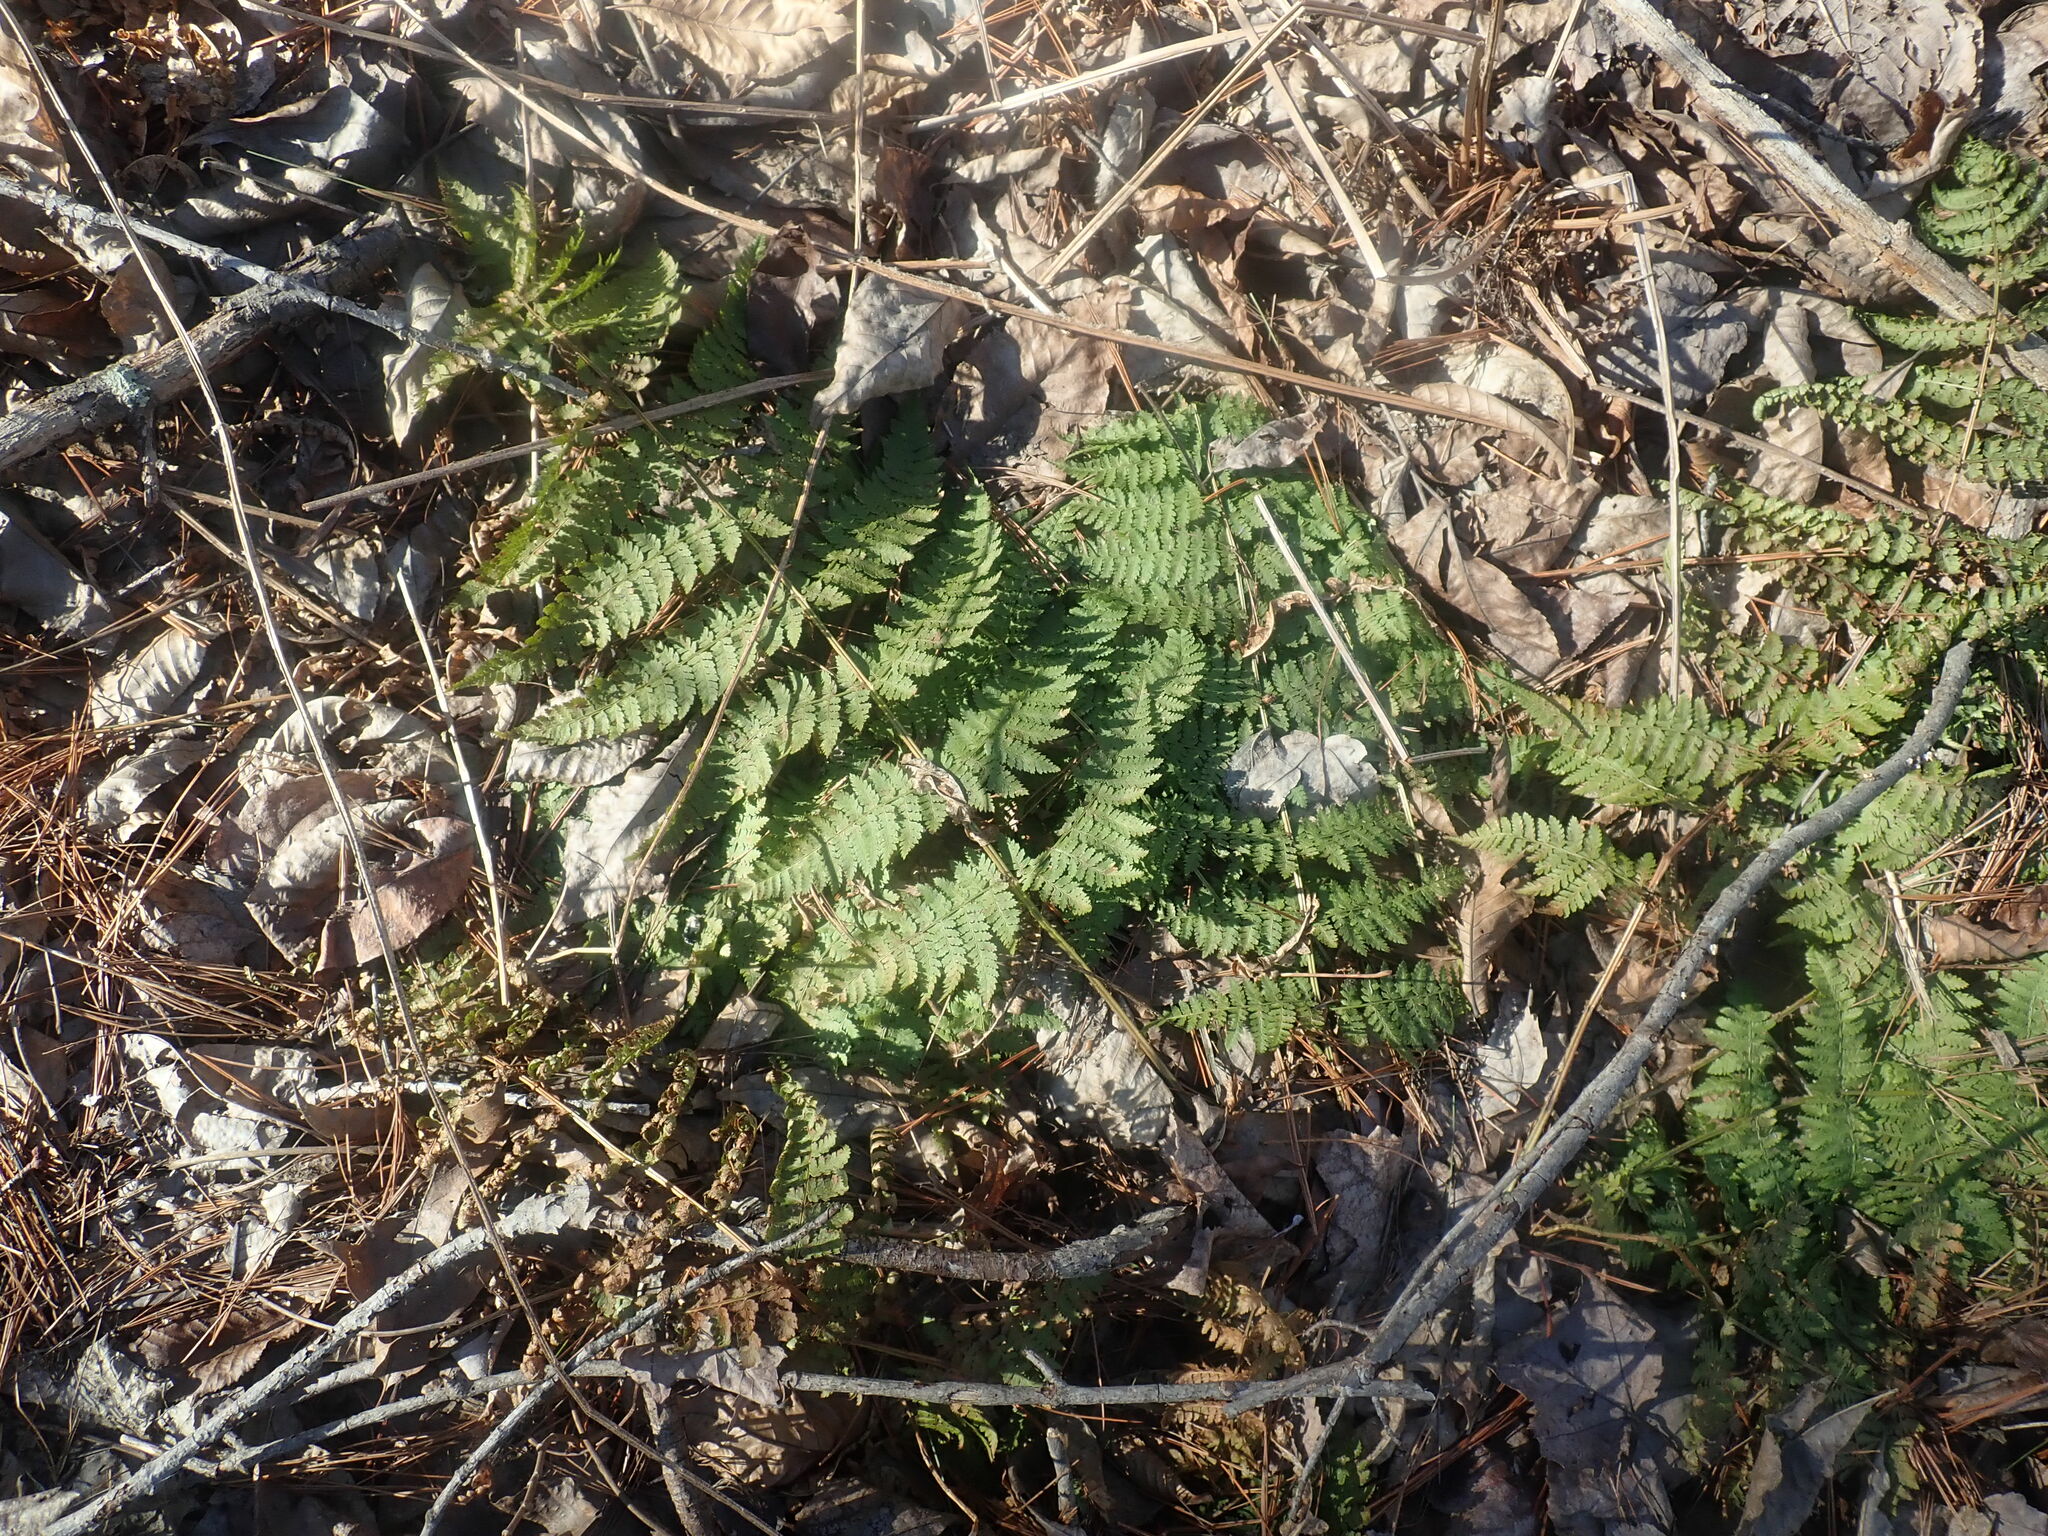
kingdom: Plantae
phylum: Tracheophyta
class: Polypodiopsida
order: Polypodiales
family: Dryopteridaceae
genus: Dryopteris
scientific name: Dryopteris intermedia
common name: Evergreen wood fern
